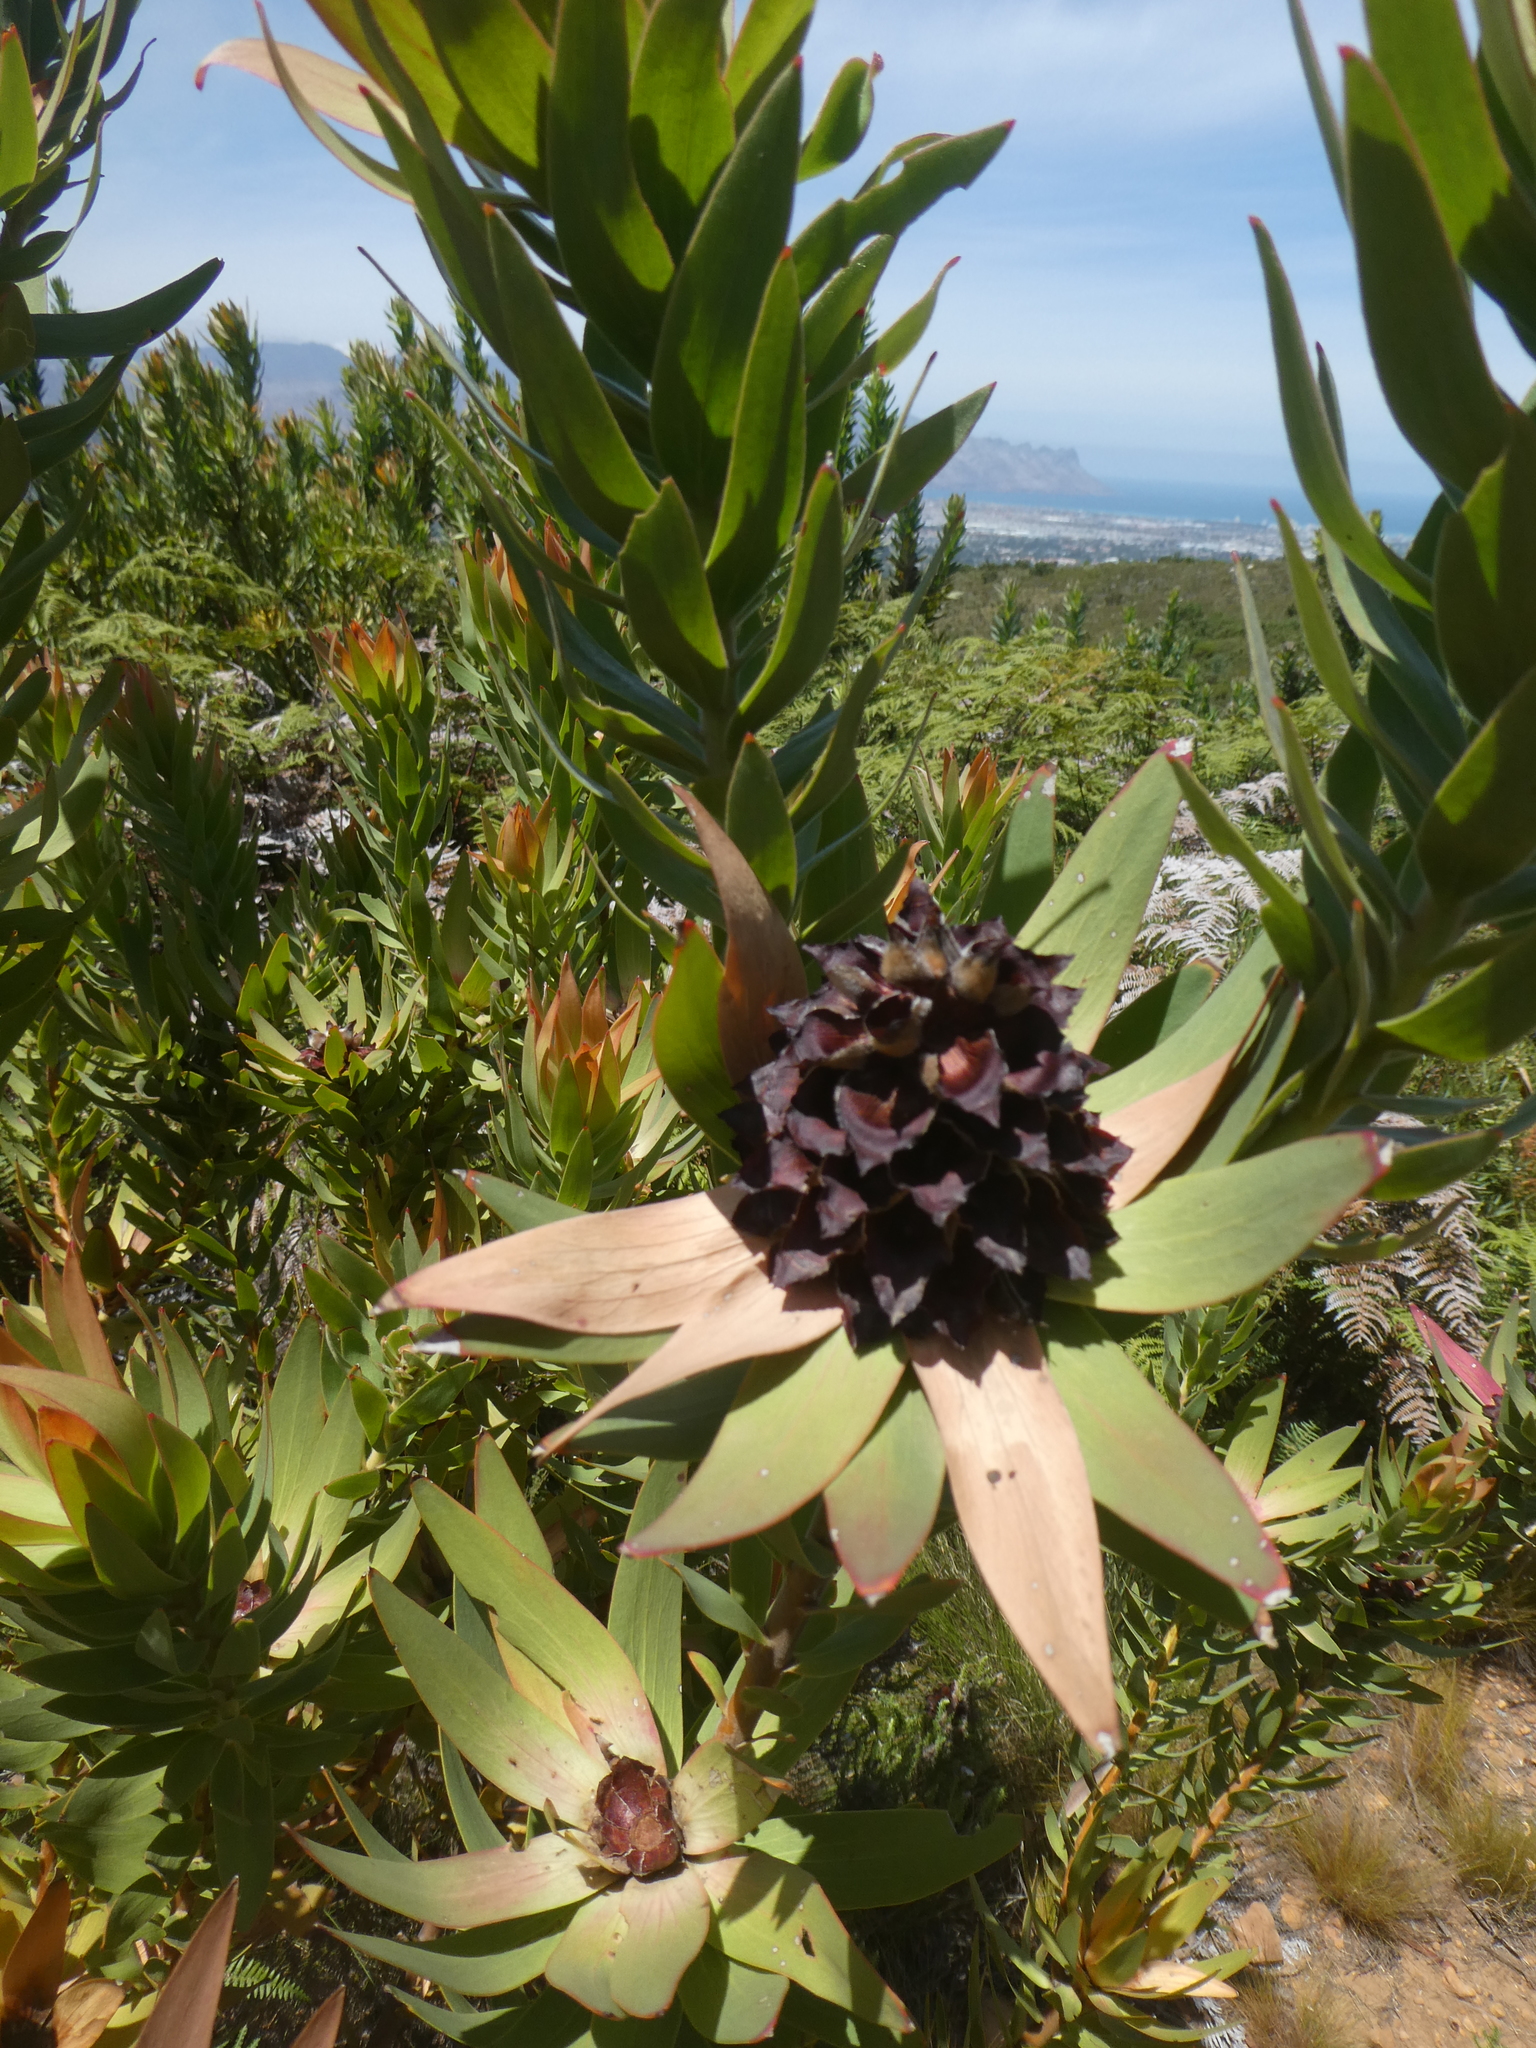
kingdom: Plantae
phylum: Tracheophyta
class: Magnoliopsida
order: Proteales
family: Proteaceae
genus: Leucadendron
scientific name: Leucadendron sessile
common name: Western sunbush
